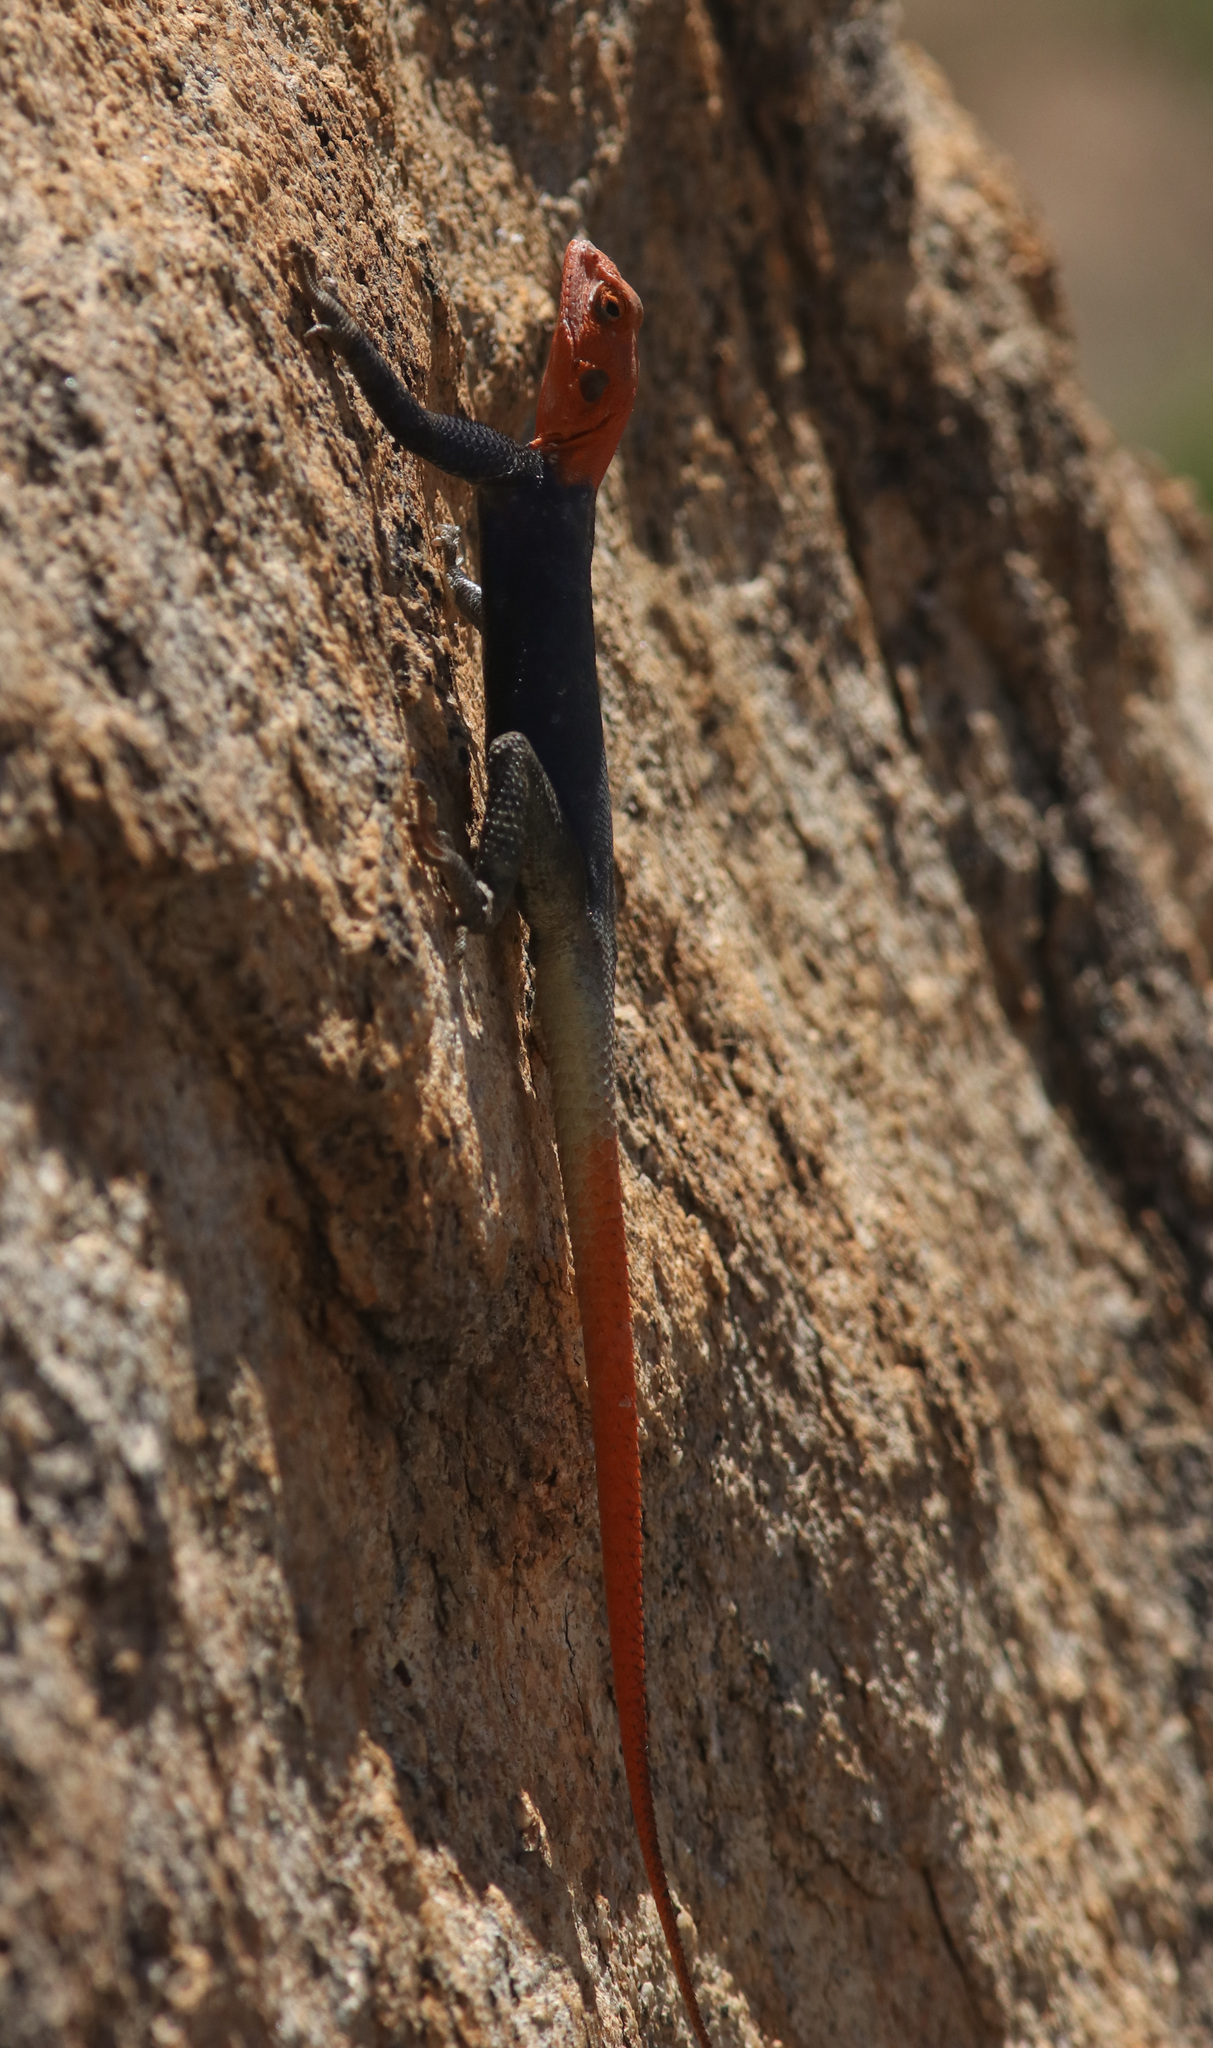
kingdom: Animalia
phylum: Chordata
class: Squamata
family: Agamidae
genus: Agama
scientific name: Agama planiceps
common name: Namib rock agama
